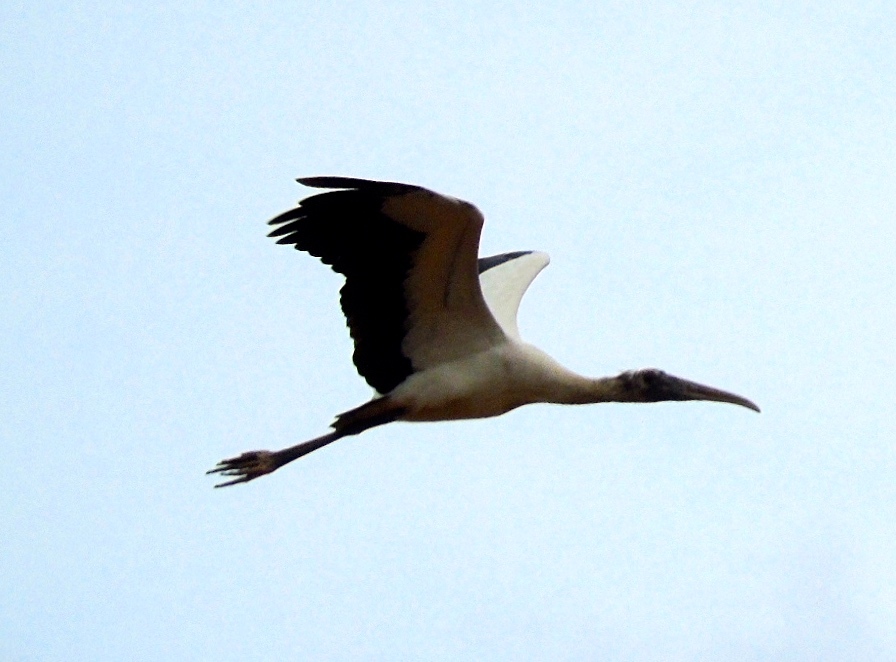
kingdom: Animalia
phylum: Chordata
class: Aves
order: Ciconiiformes
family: Ciconiidae
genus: Mycteria
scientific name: Mycteria americana
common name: Wood stork
